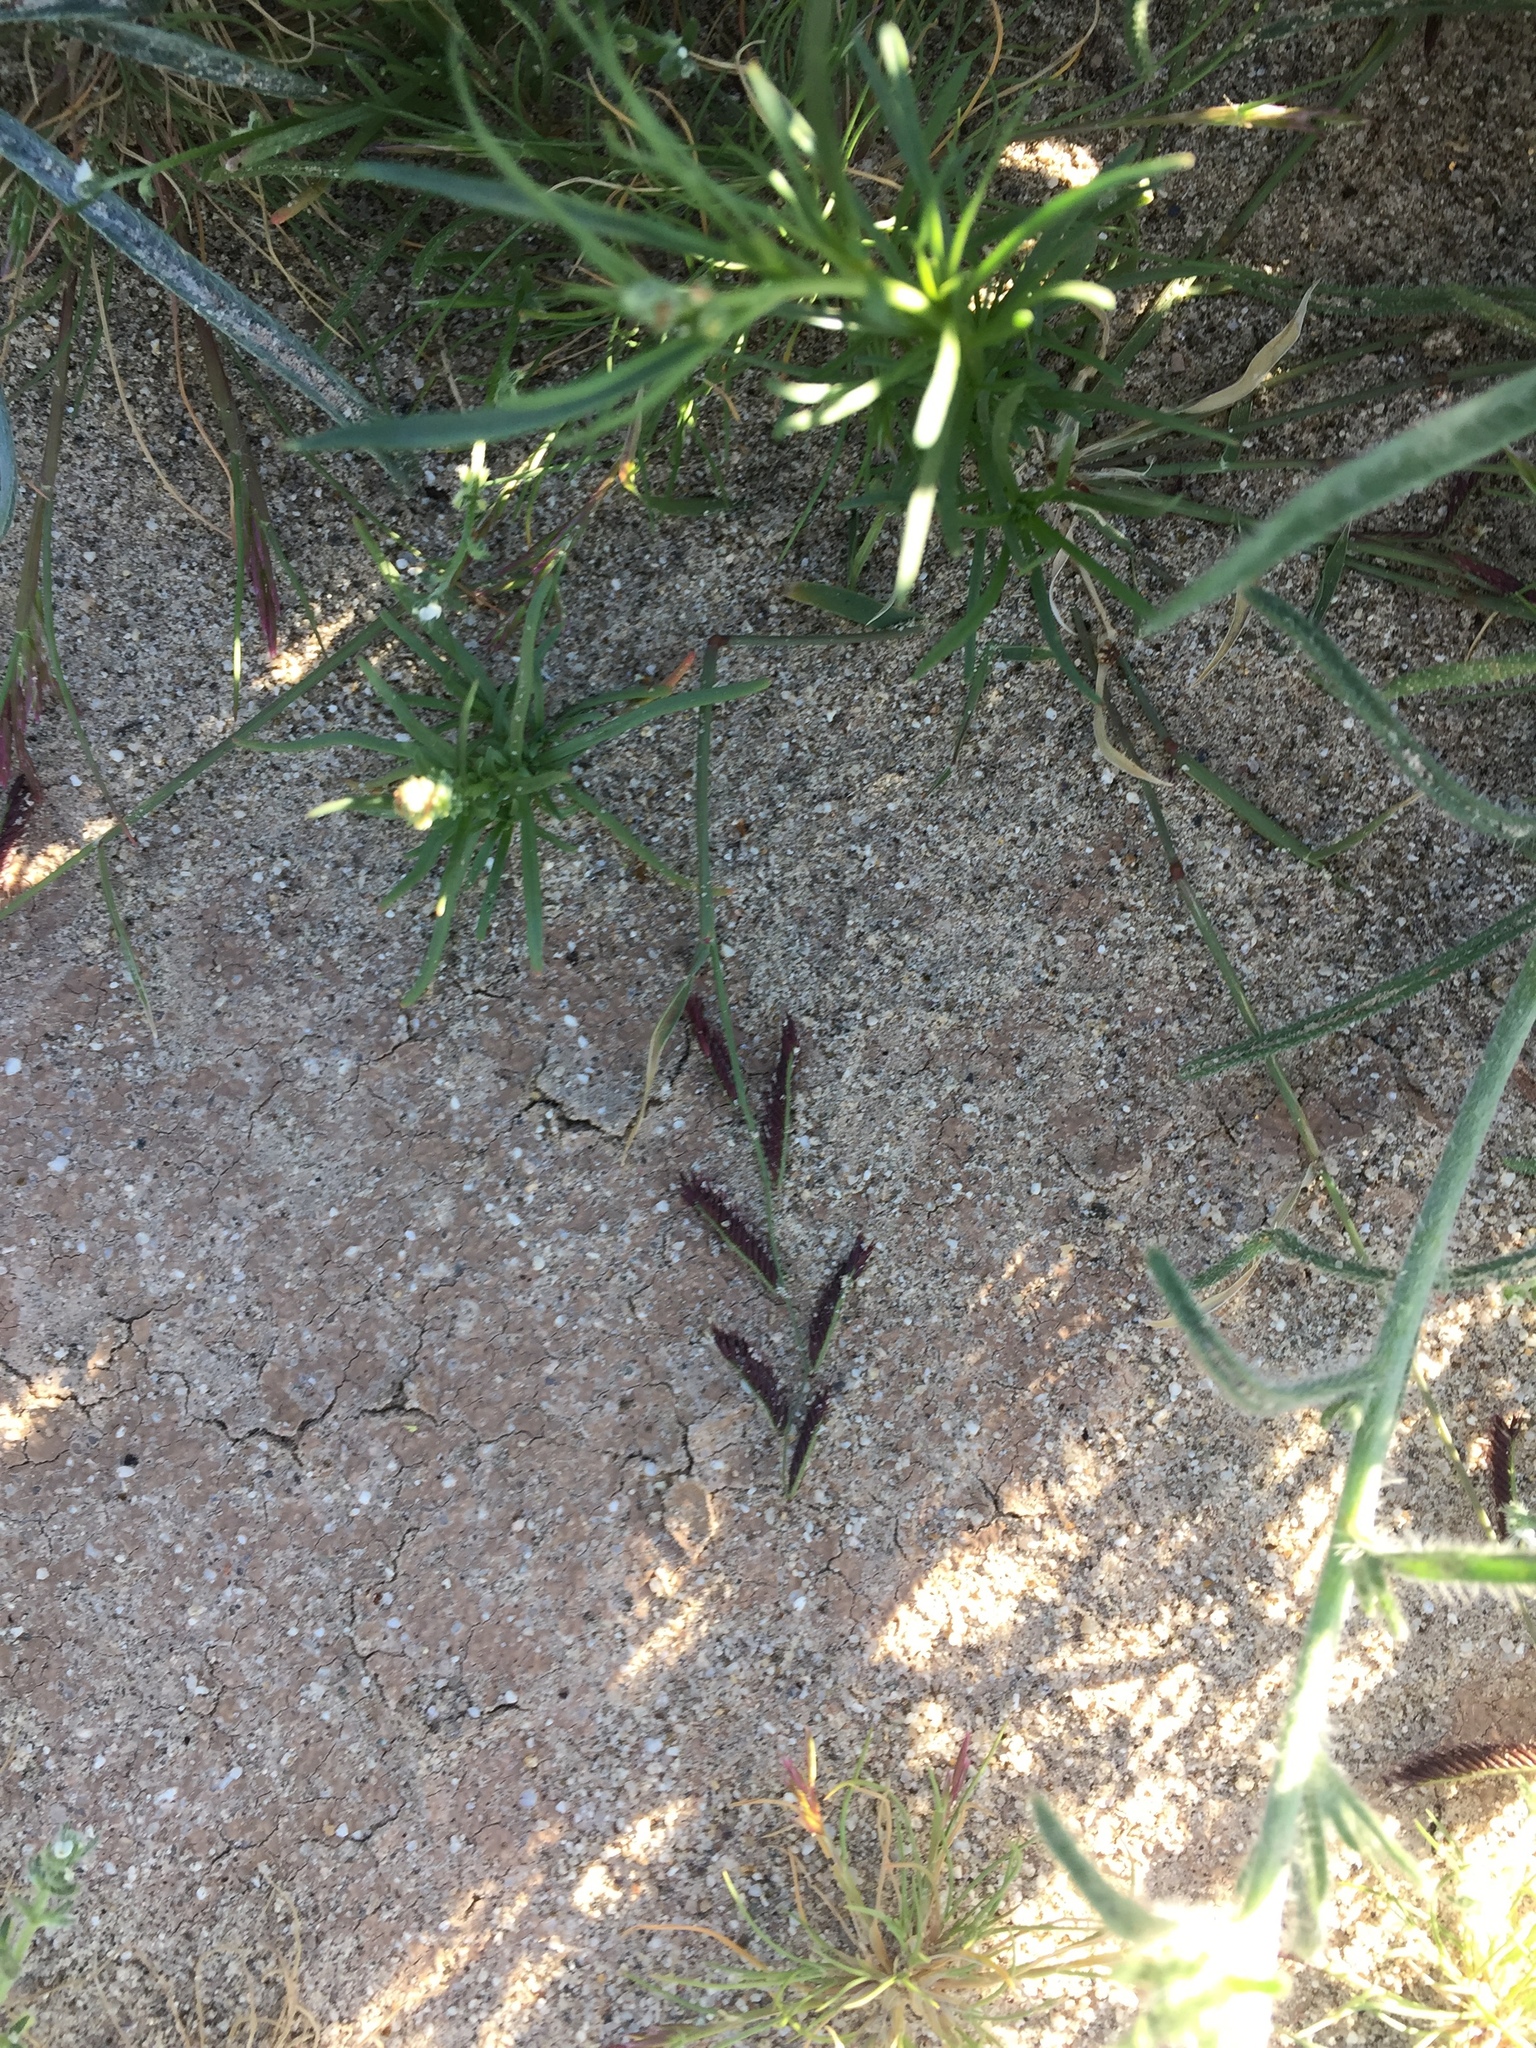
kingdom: Plantae
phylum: Tracheophyta
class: Liliopsida
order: Poales
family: Poaceae
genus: Bouteloua
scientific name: Bouteloua barbata
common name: Six-weeks grama
